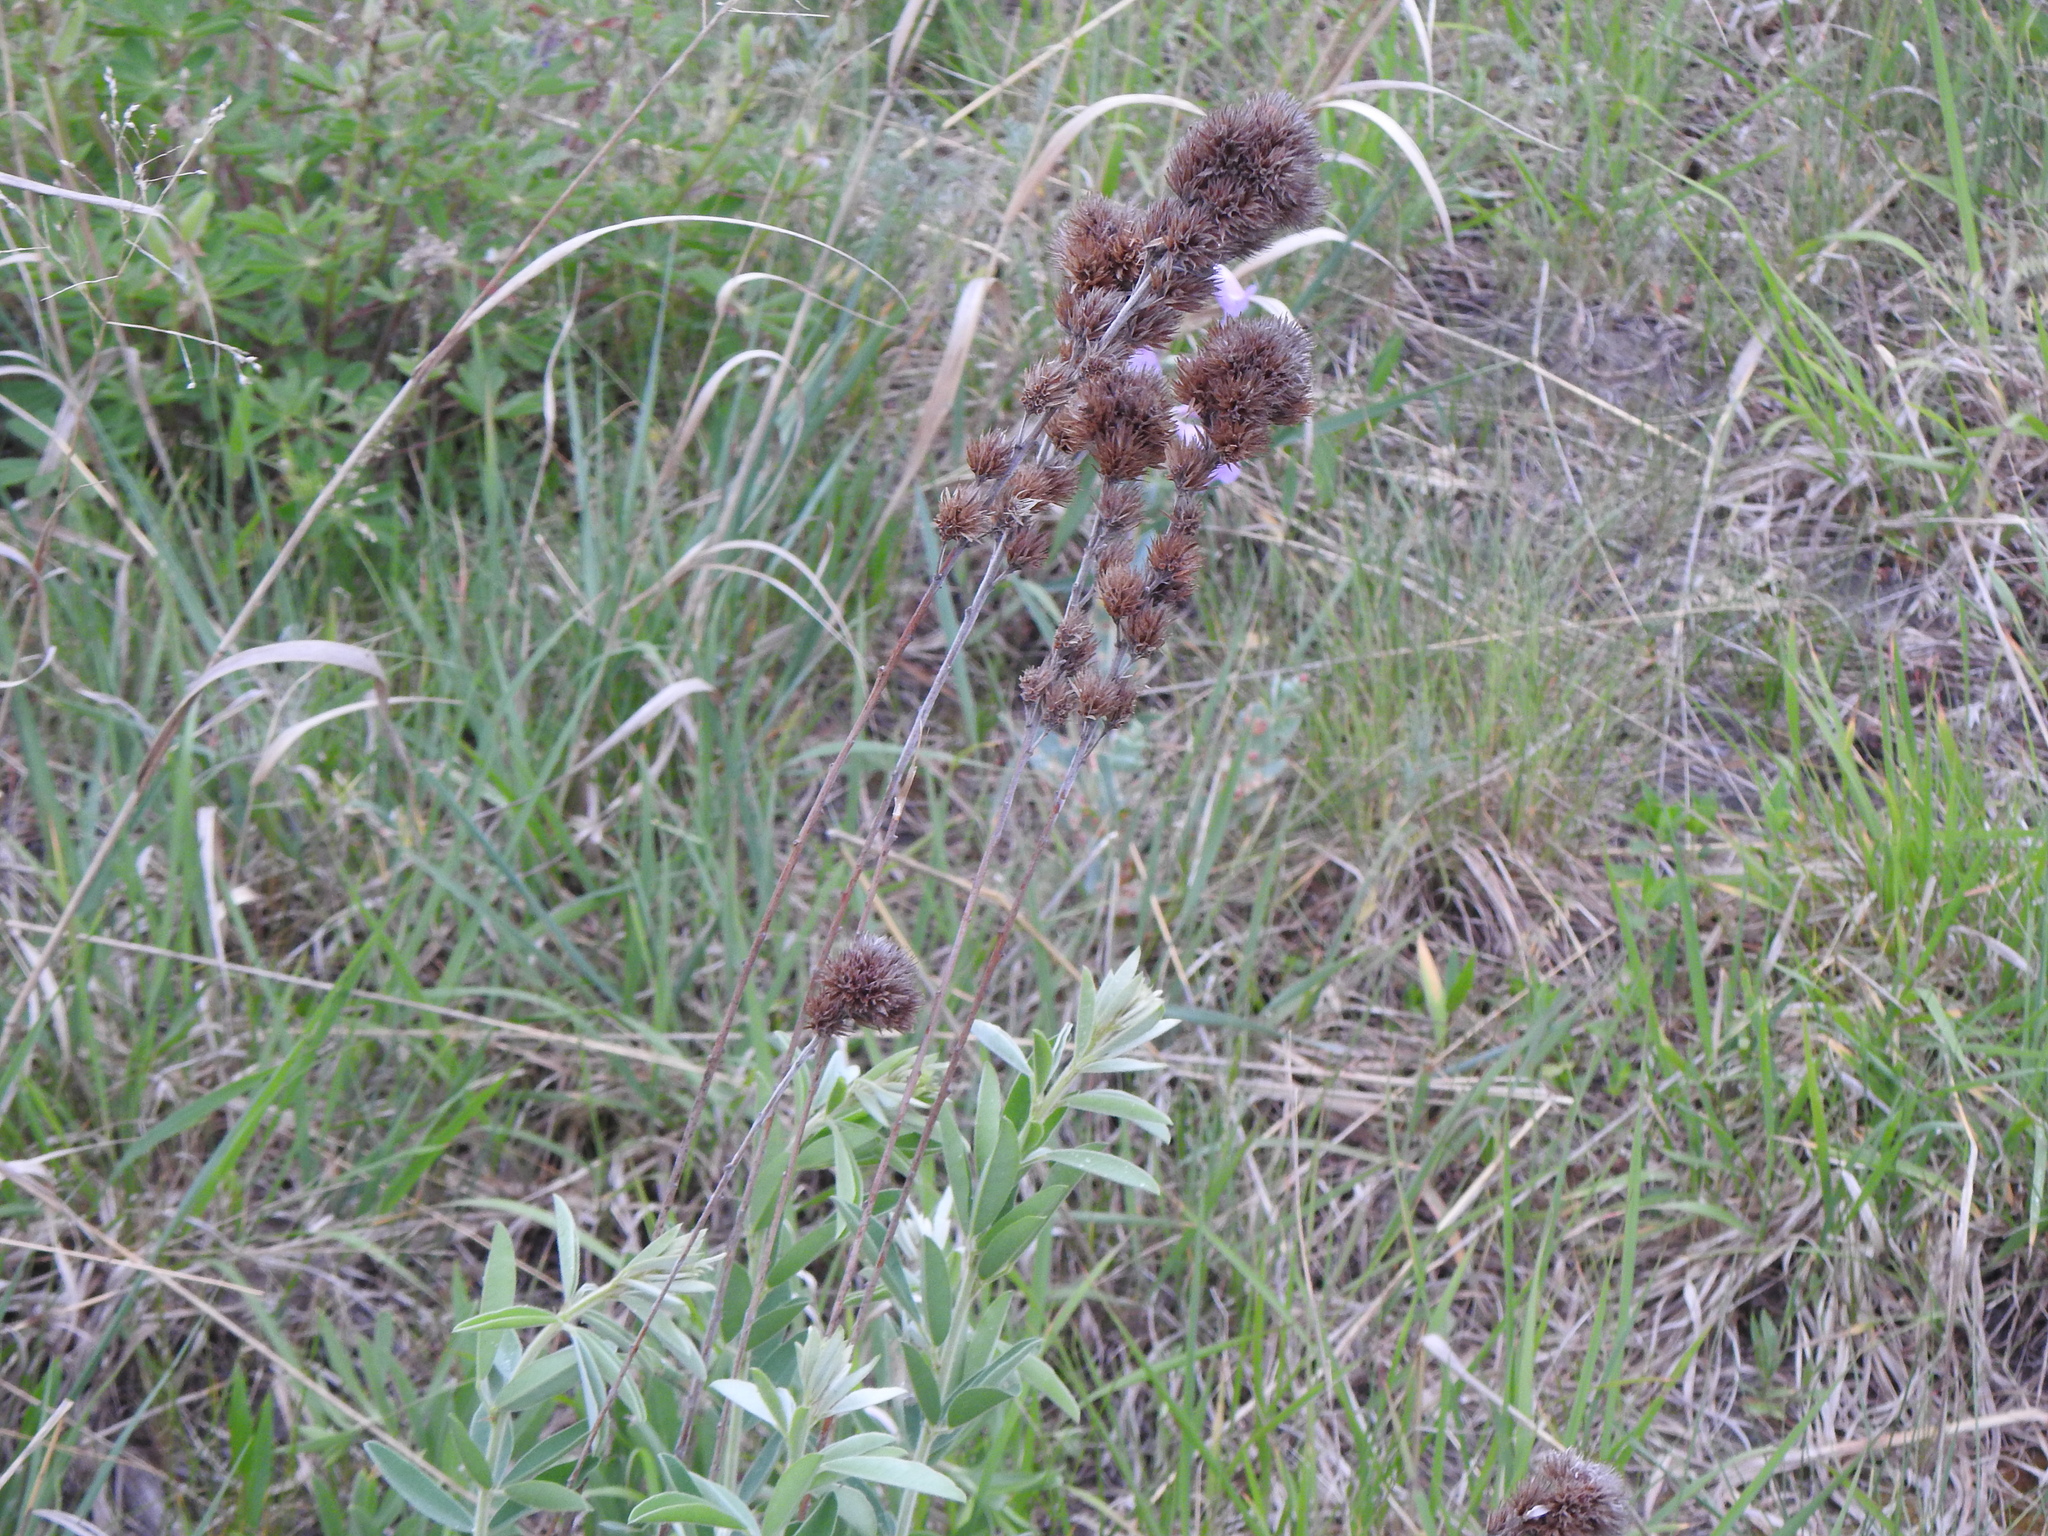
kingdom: Plantae
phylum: Tracheophyta
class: Magnoliopsida
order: Fabales
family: Fabaceae
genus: Lespedeza
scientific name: Lespedeza capitata
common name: Dusty clover
